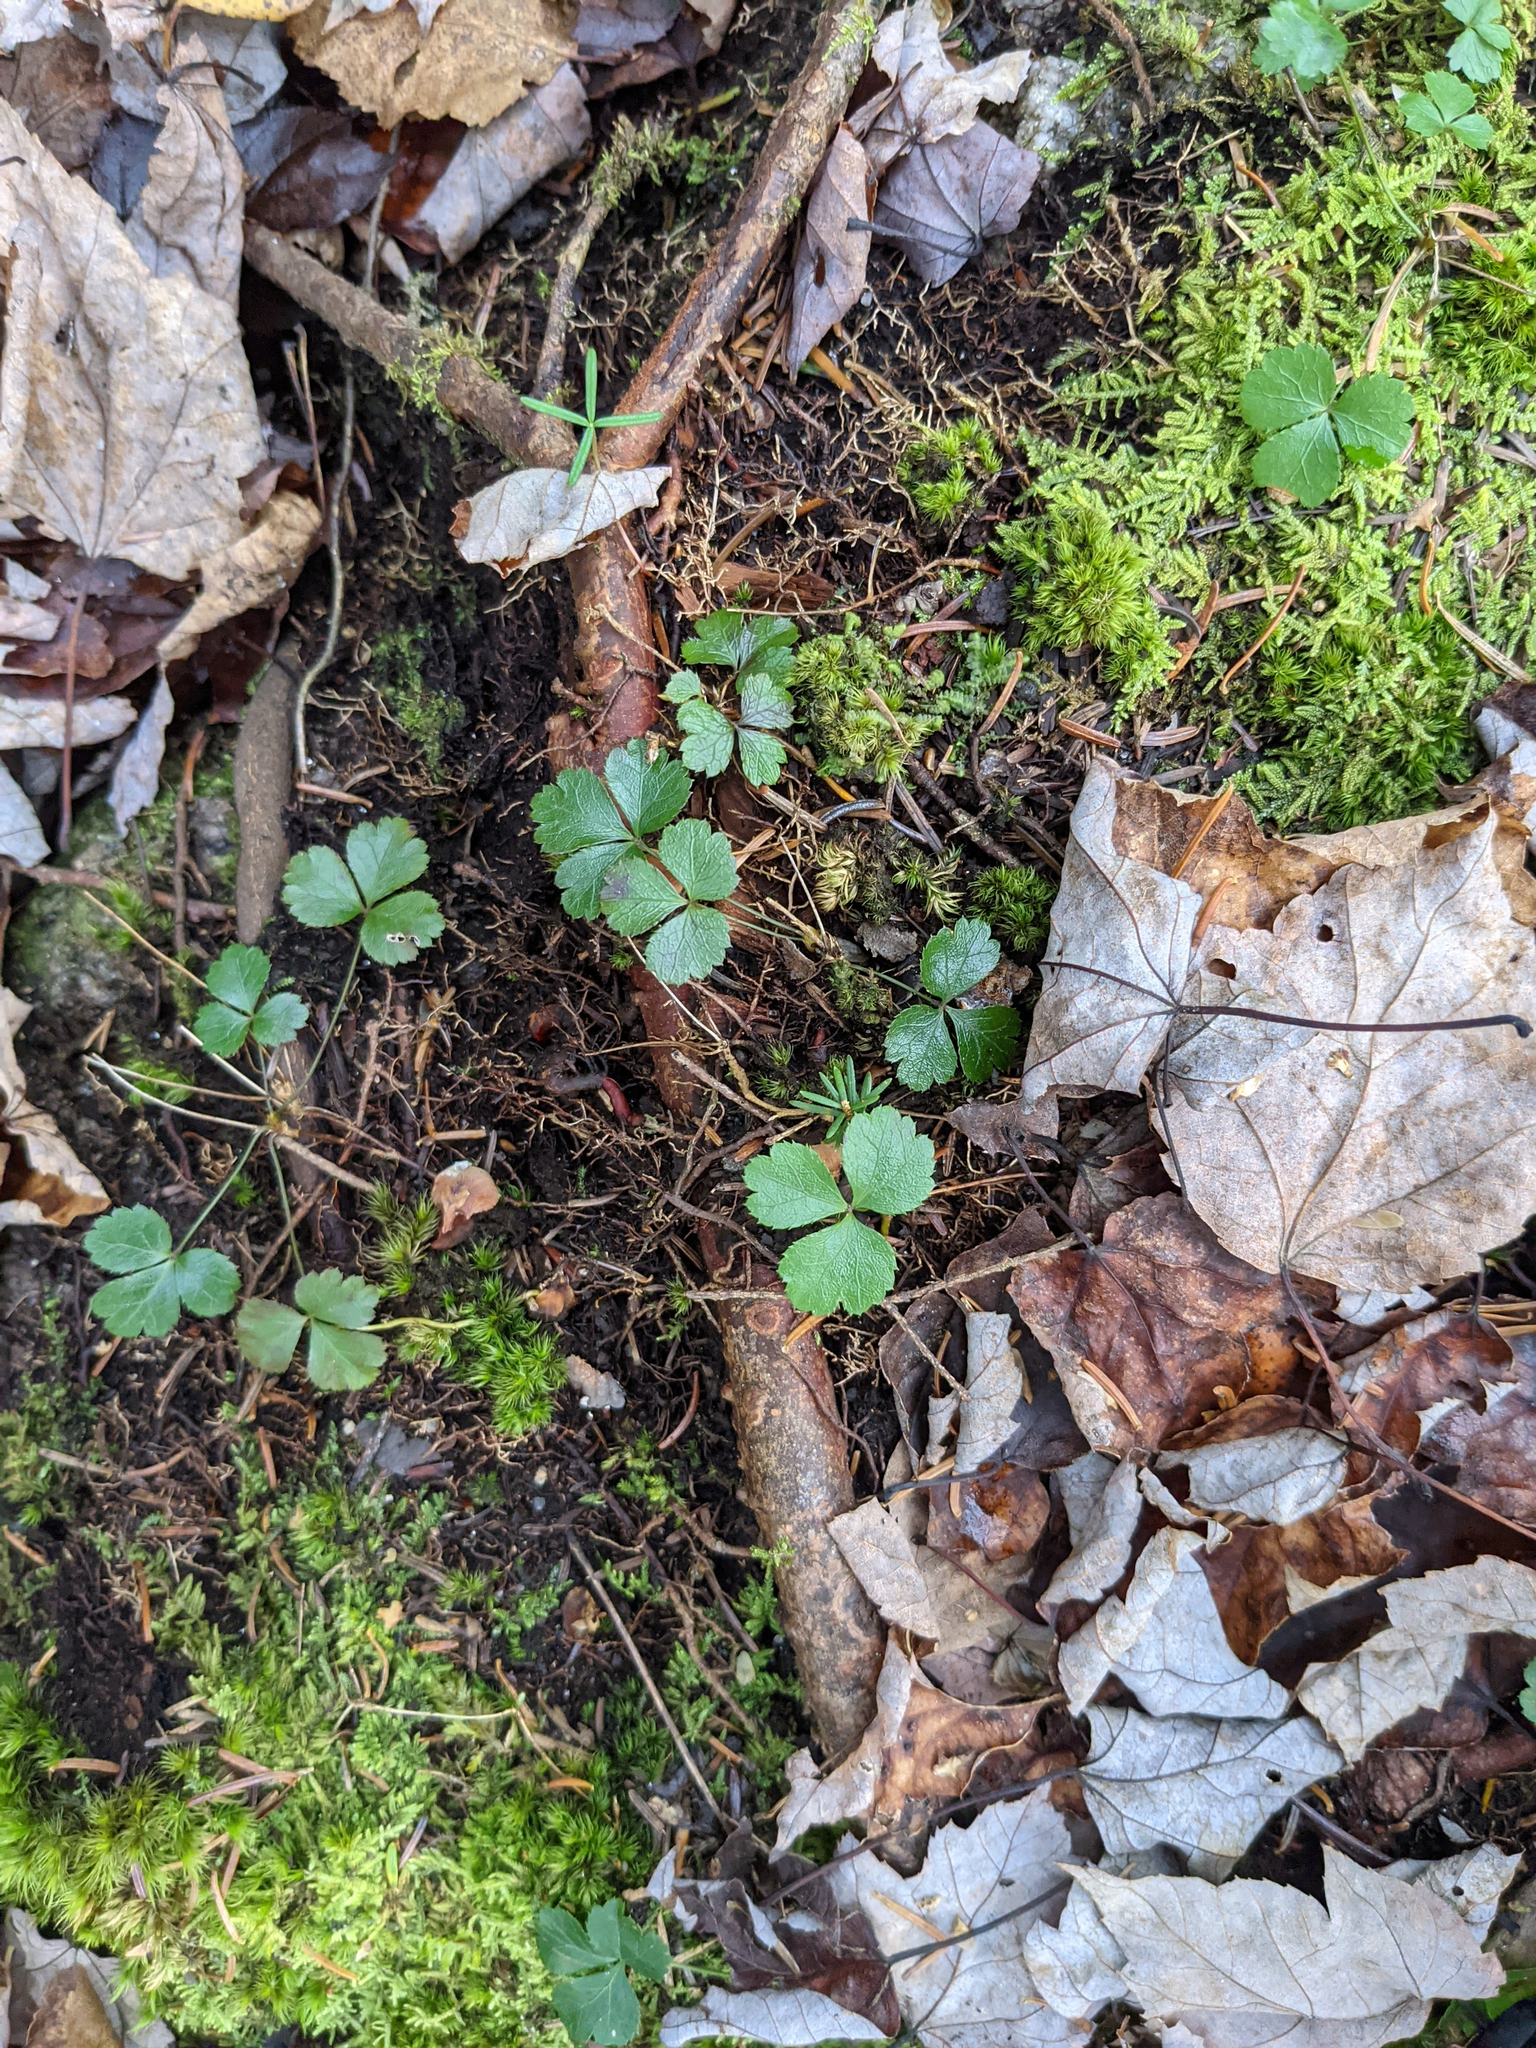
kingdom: Plantae
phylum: Tracheophyta
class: Magnoliopsida
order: Ranunculales
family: Ranunculaceae
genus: Coptis
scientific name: Coptis trifolia
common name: Canker-root
